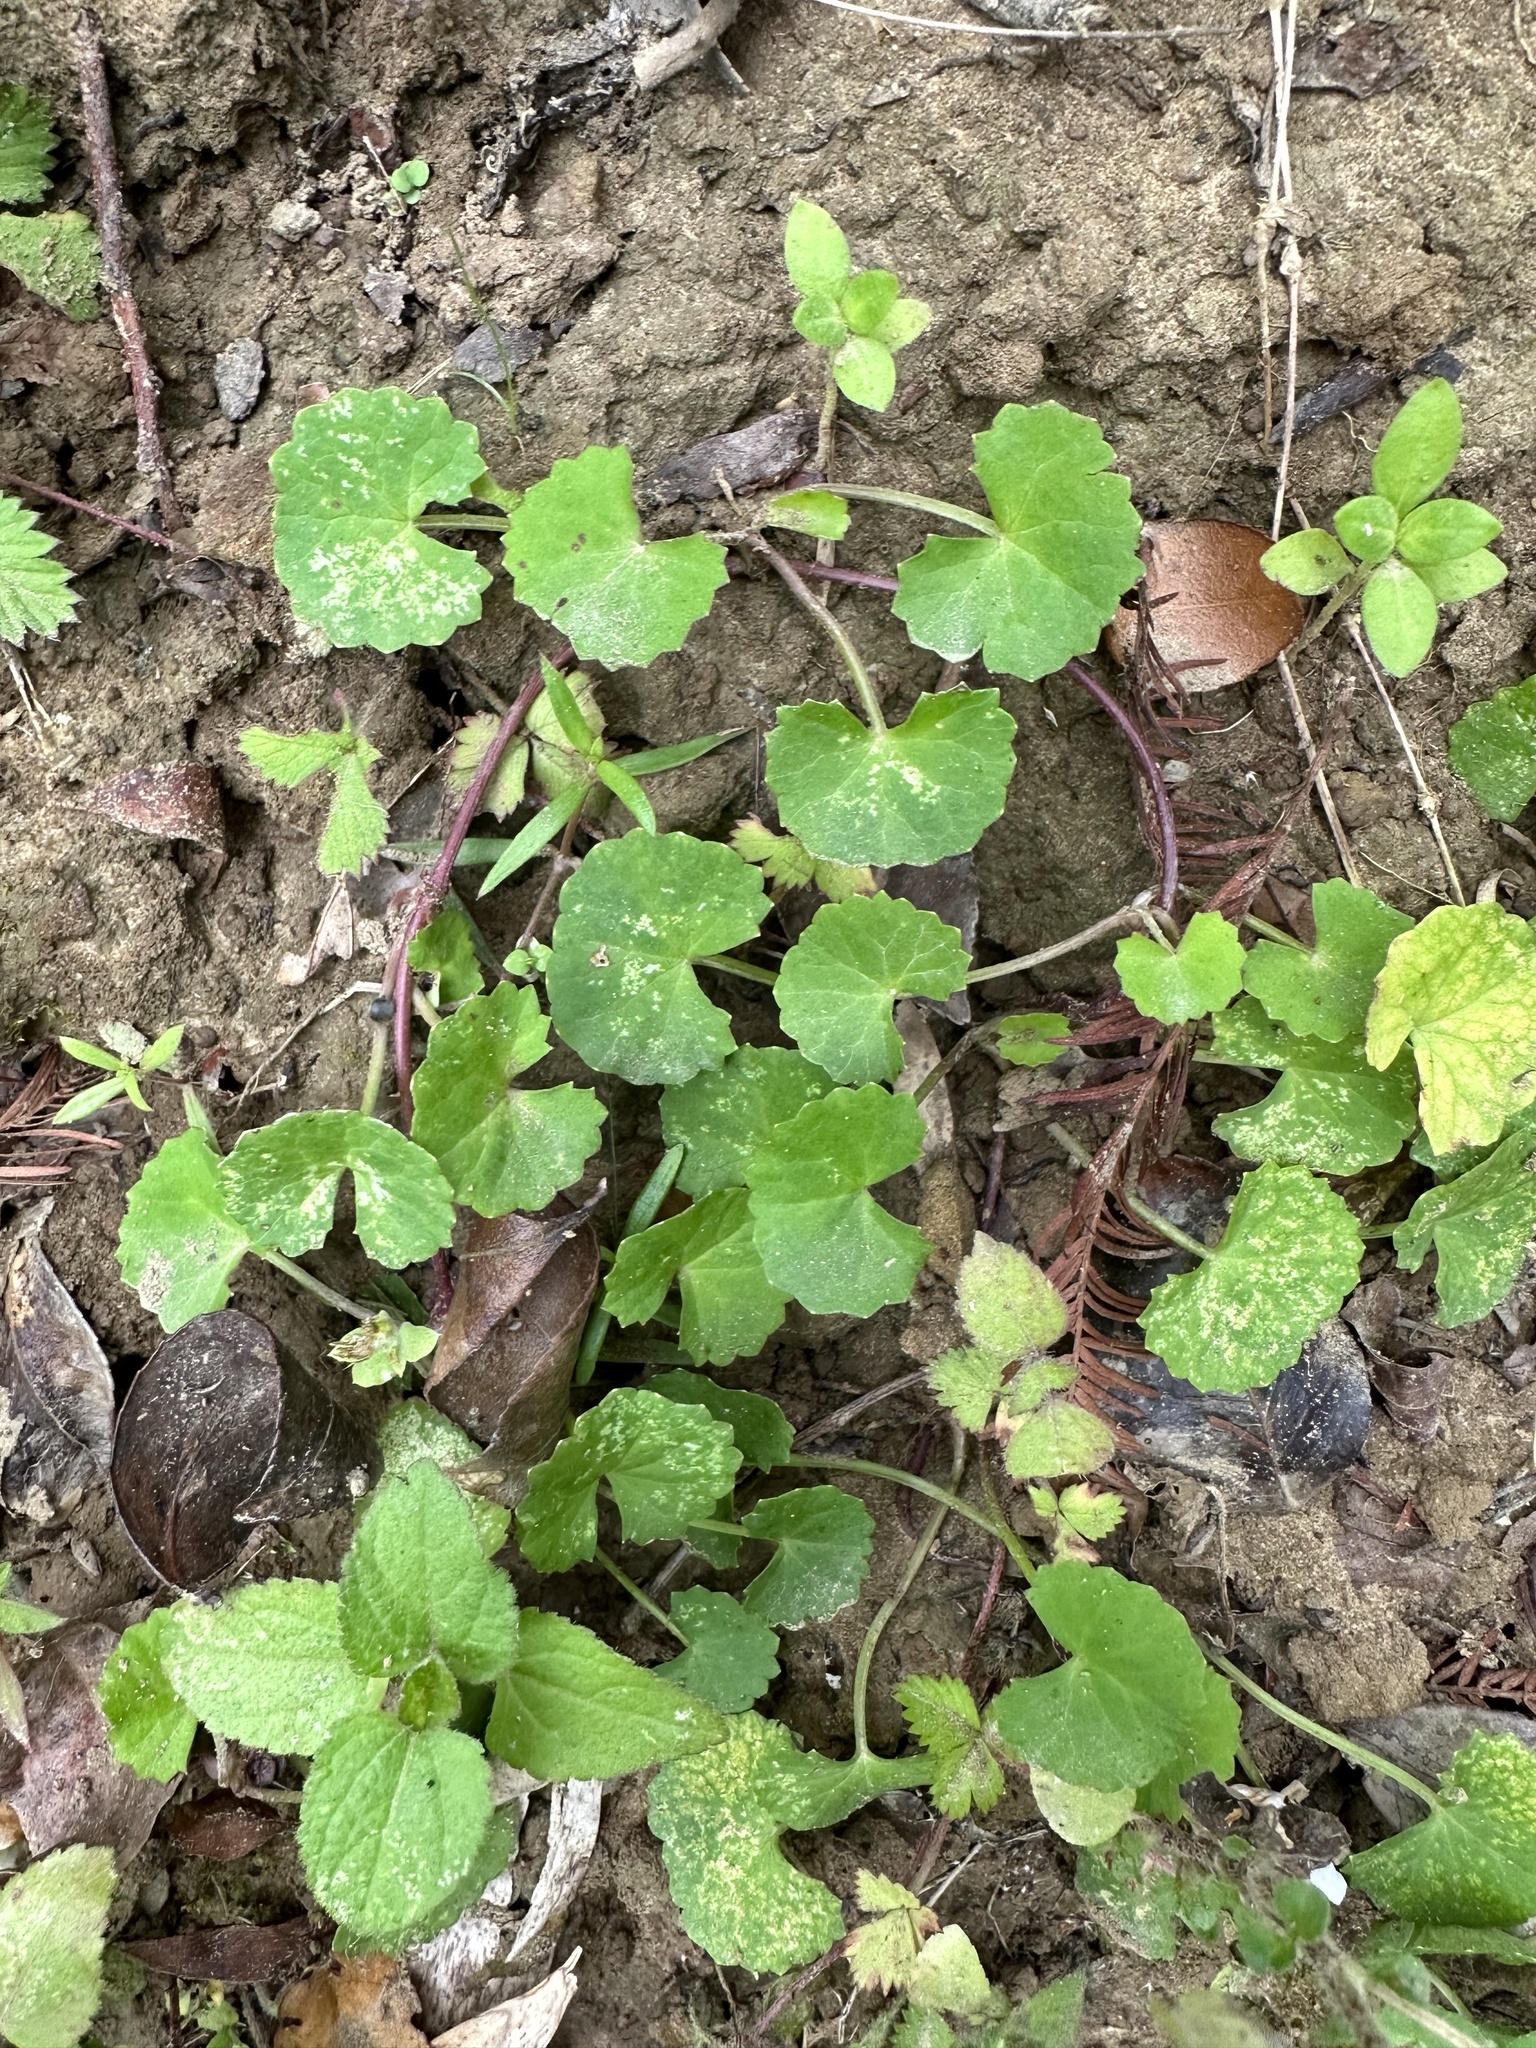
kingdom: Plantae
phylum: Tracheophyta
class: Magnoliopsida
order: Apiales
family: Apiaceae
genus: Centella
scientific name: Centella asiatica
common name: Spadeleaf
